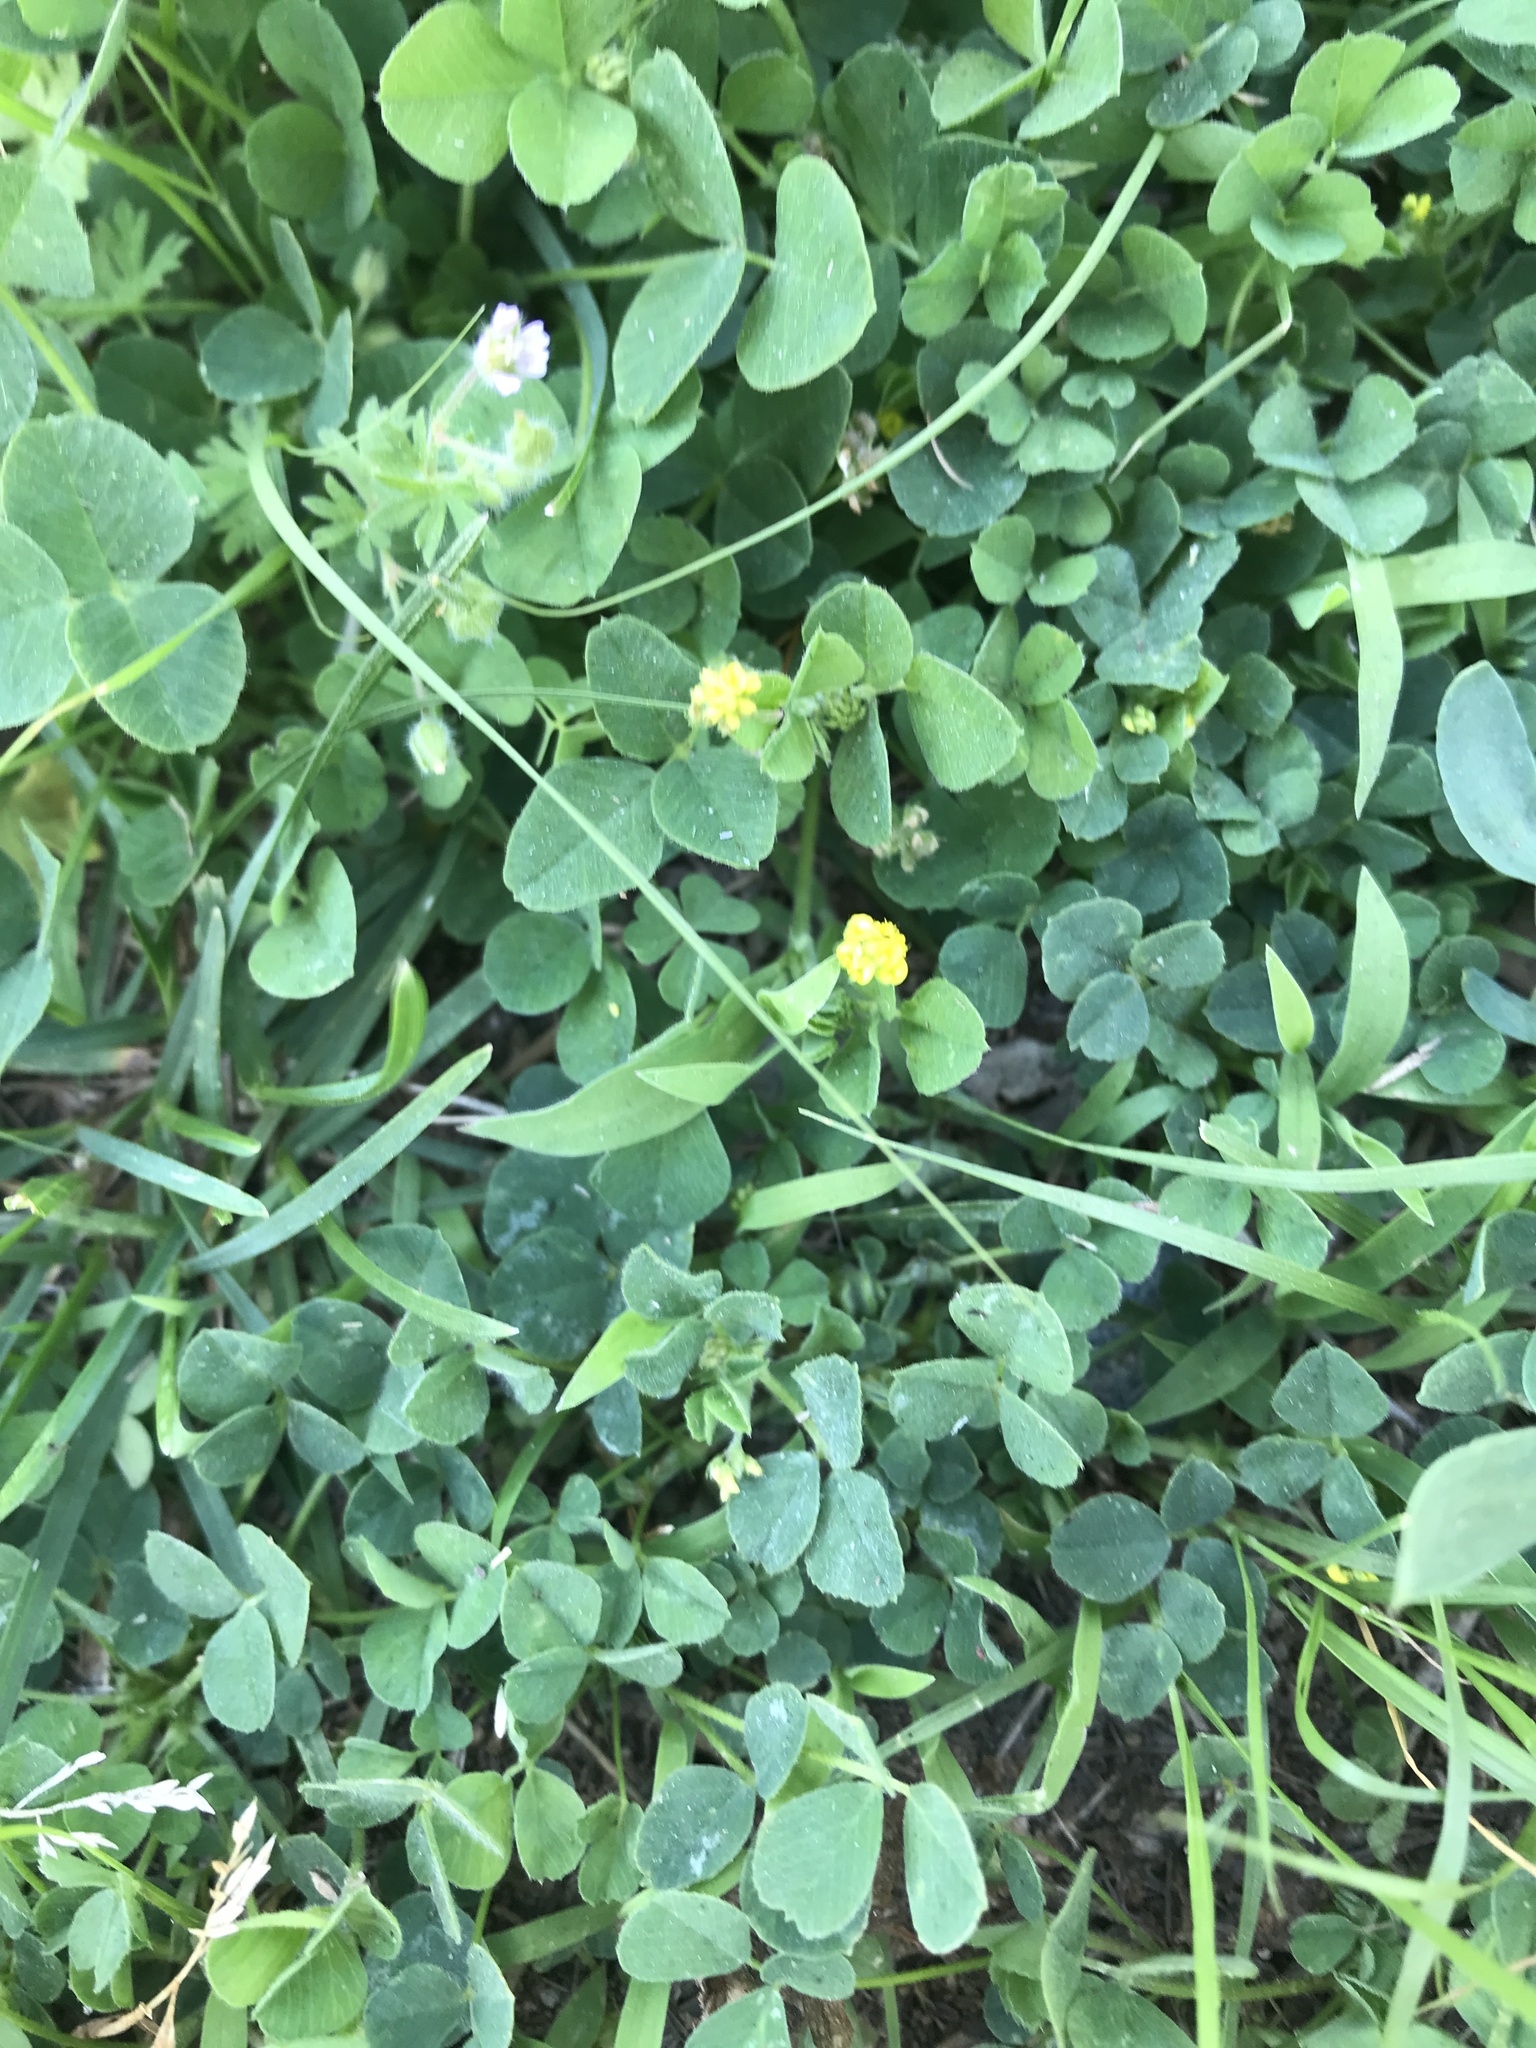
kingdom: Plantae
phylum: Tracheophyta
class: Magnoliopsida
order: Fabales
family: Fabaceae
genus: Medicago
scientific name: Medicago lupulina
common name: Black medick
